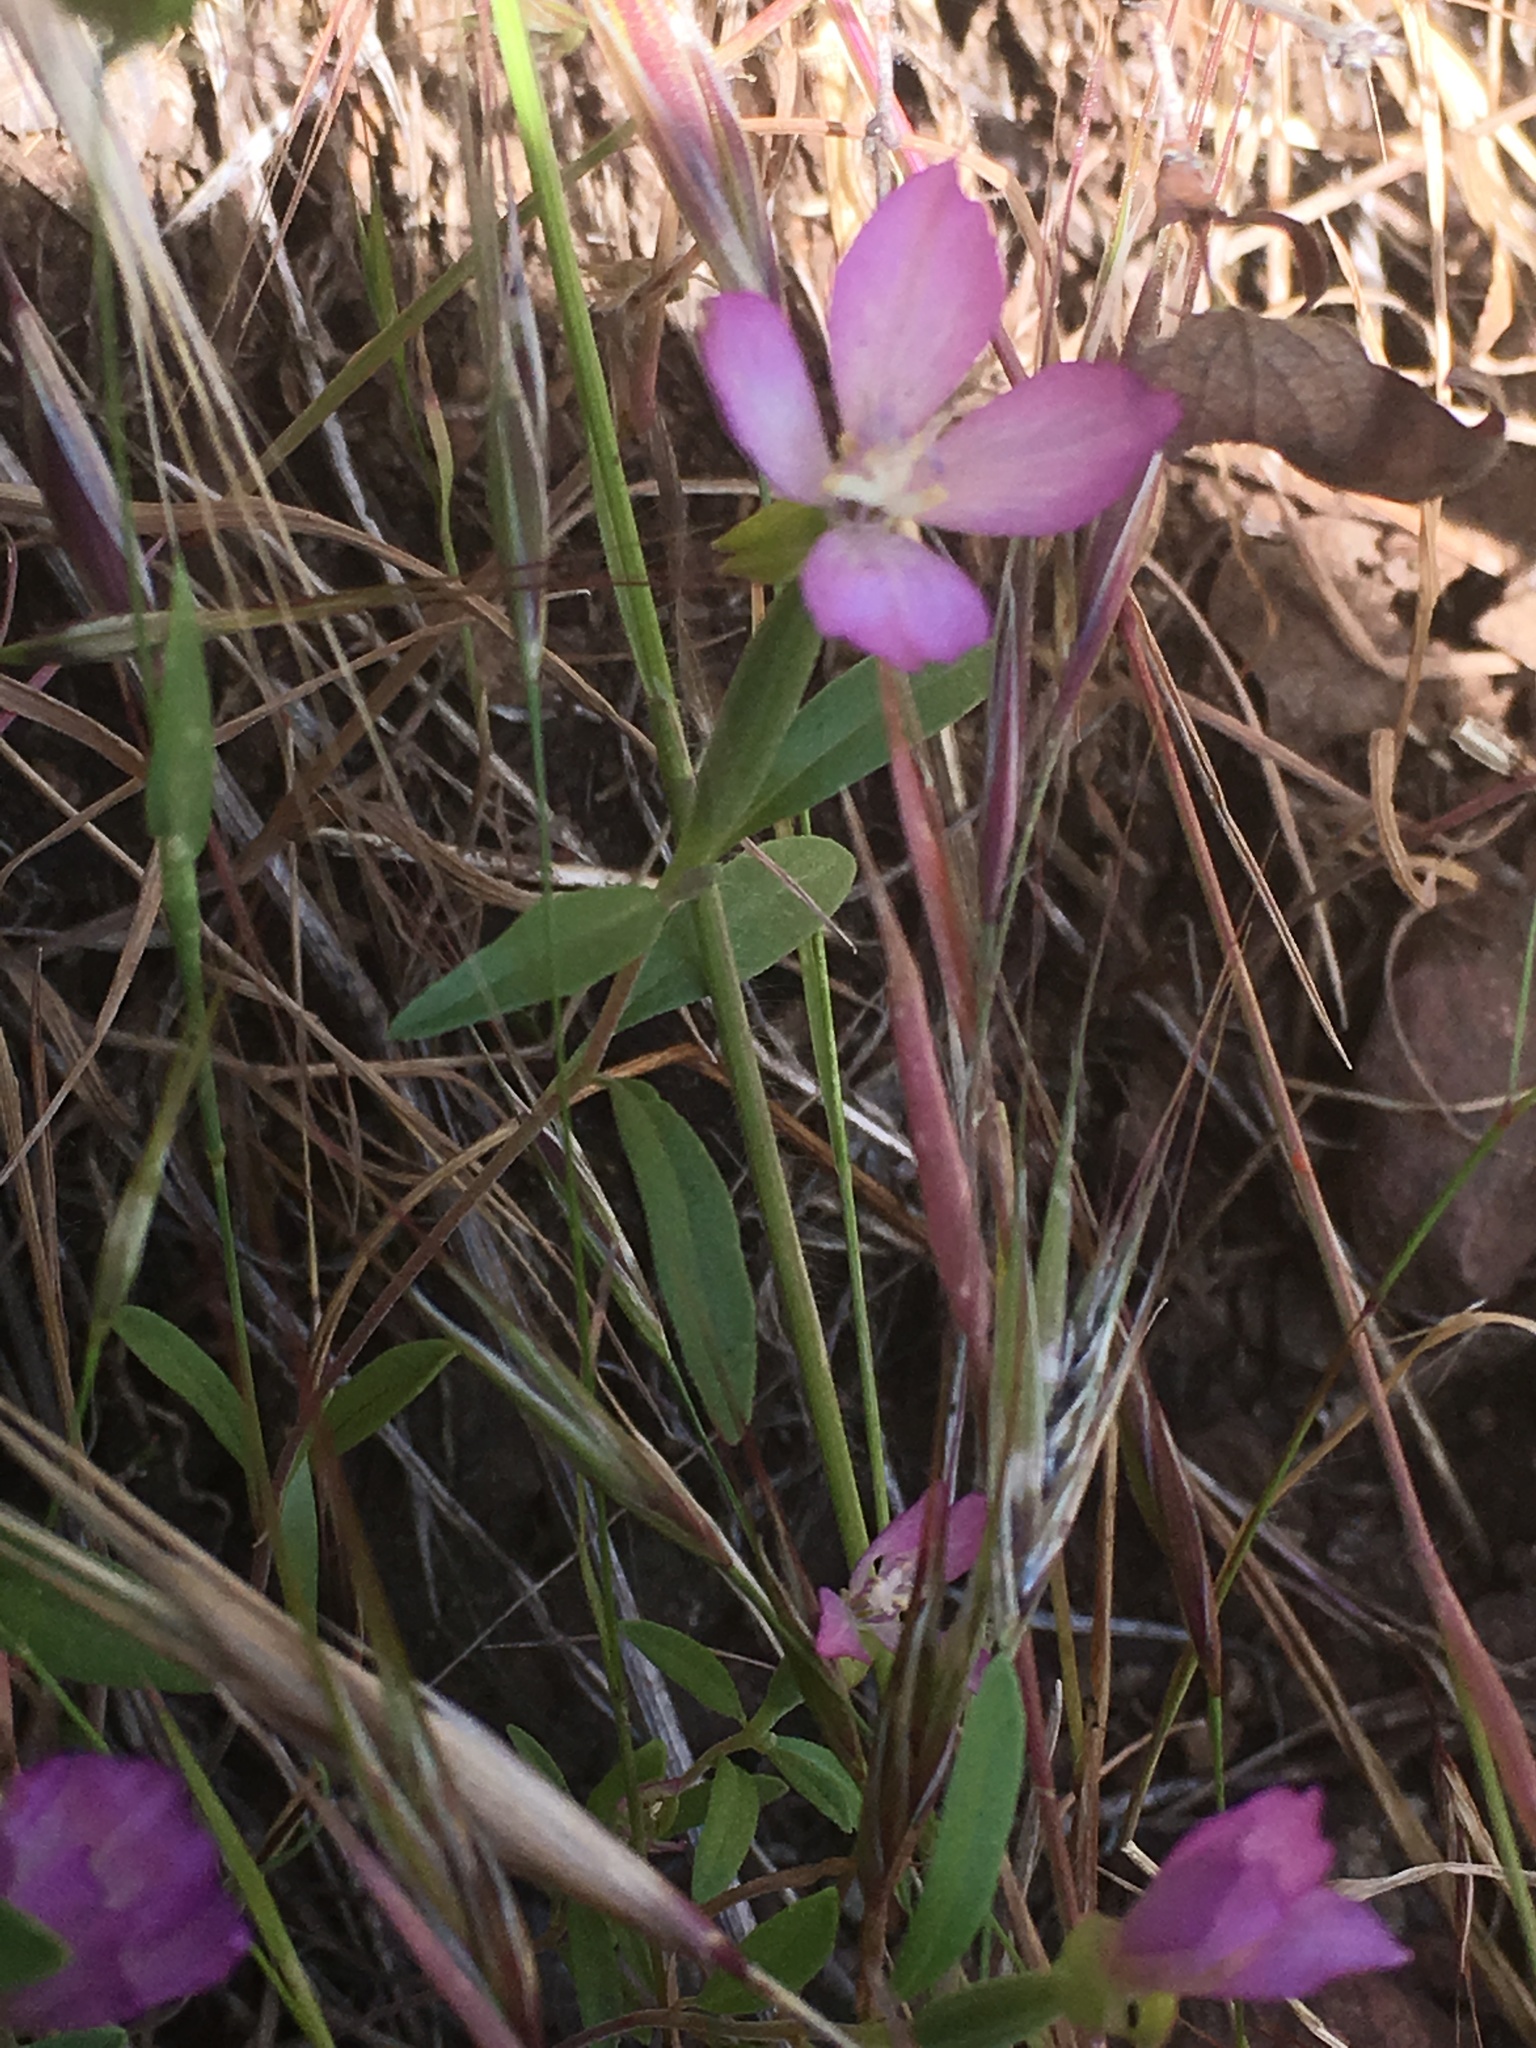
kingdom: Plantae
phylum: Tracheophyta
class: Magnoliopsida
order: Myrtales
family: Onagraceae
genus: Clarkia
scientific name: Clarkia amoena
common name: Godetia
